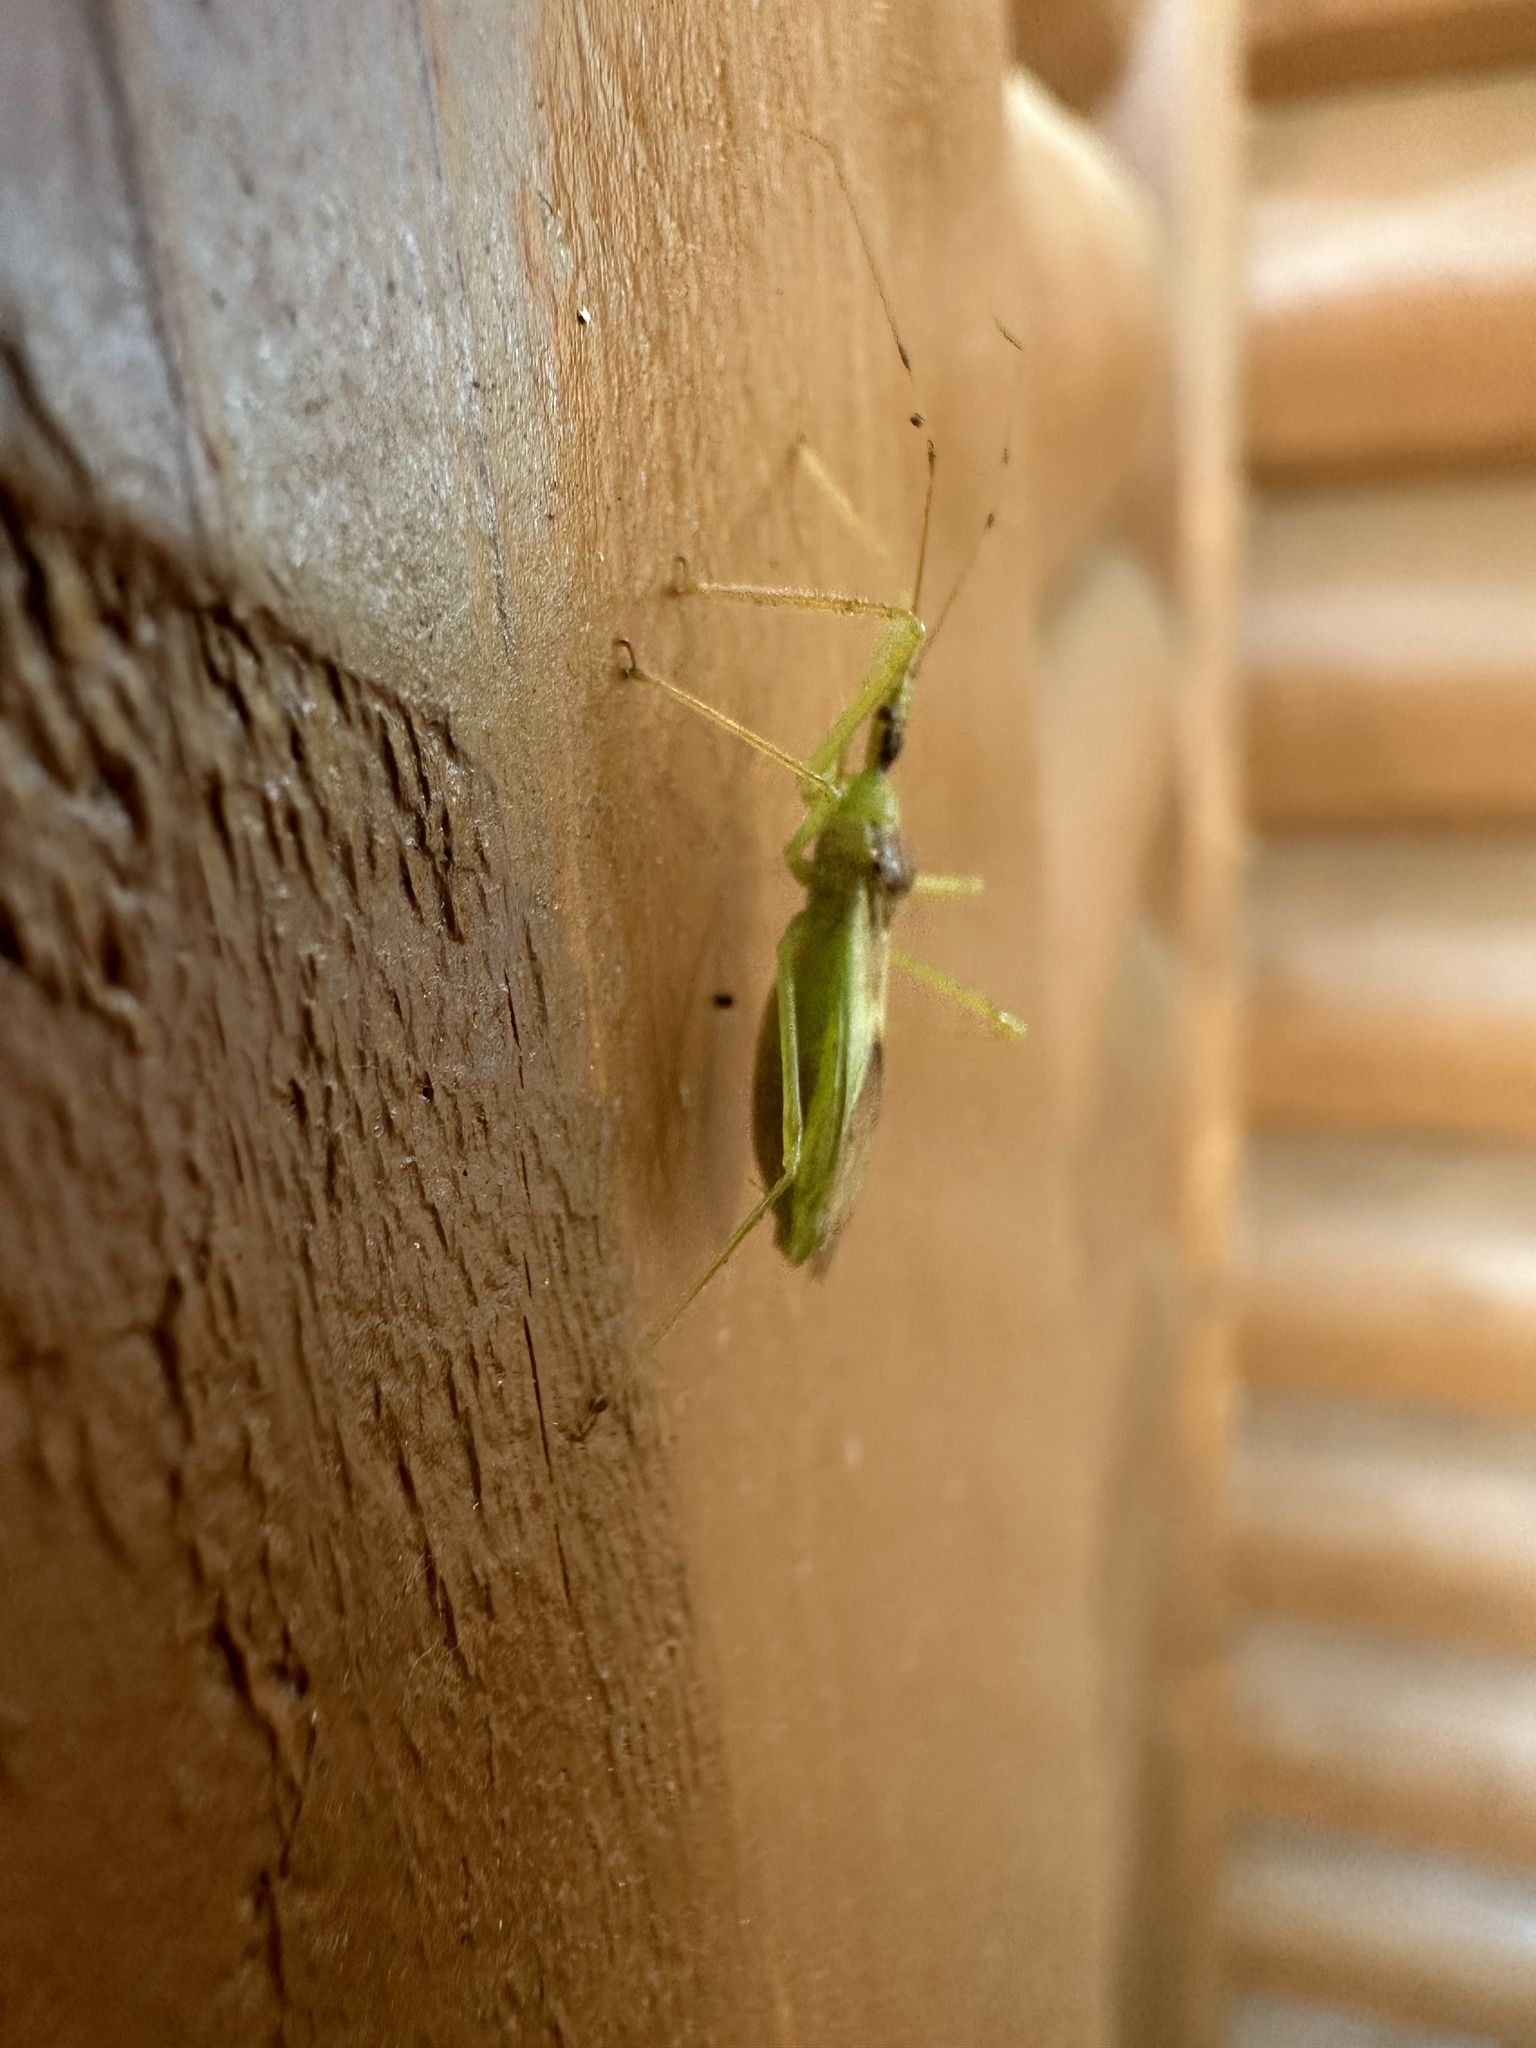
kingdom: Animalia
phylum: Arthropoda
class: Insecta
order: Hemiptera
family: Reduviidae
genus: Zelus
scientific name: Zelus luridus
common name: Pale green assassin bug
